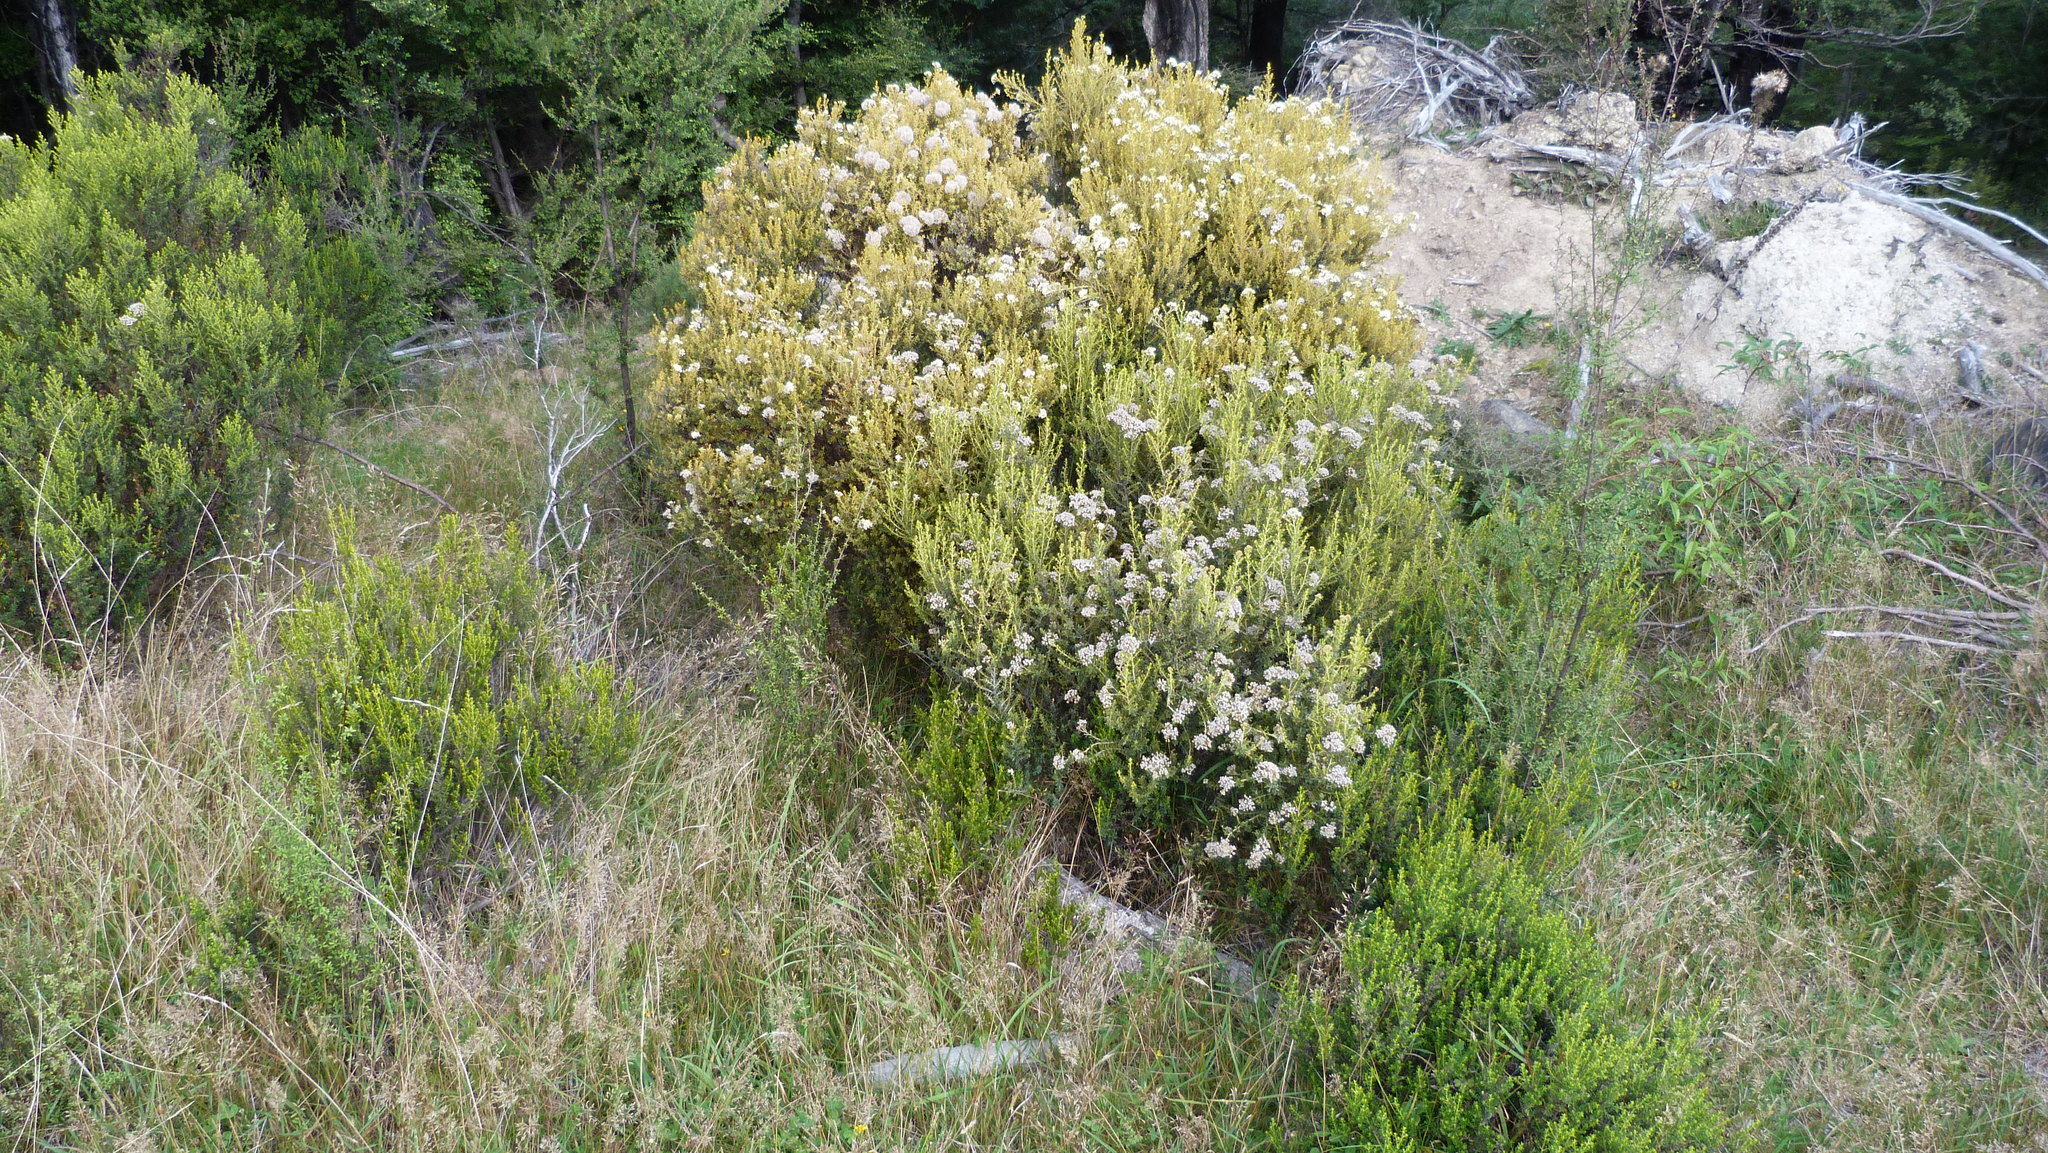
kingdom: Plantae
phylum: Tracheophyta
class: Magnoliopsida
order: Asterales
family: Asteraceae
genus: Ozothamnus
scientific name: Ozothamnus leptophyllus
